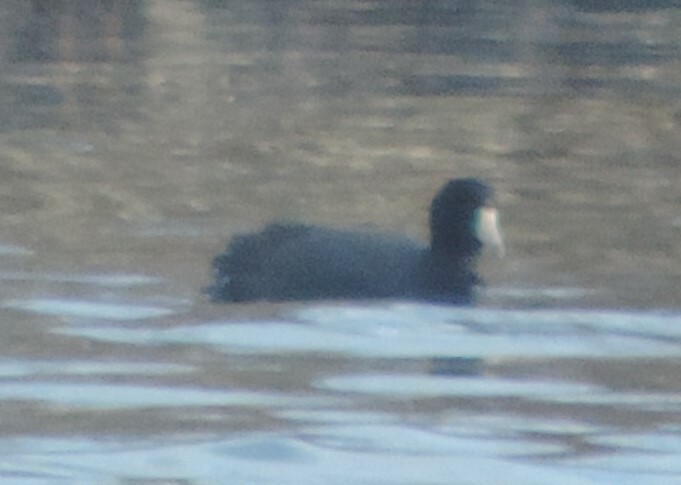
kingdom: Animalia
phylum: Chordata
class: Aves
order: Gruiformes
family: Rallidae
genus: Fulica
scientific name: Fulica americana
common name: American coot
